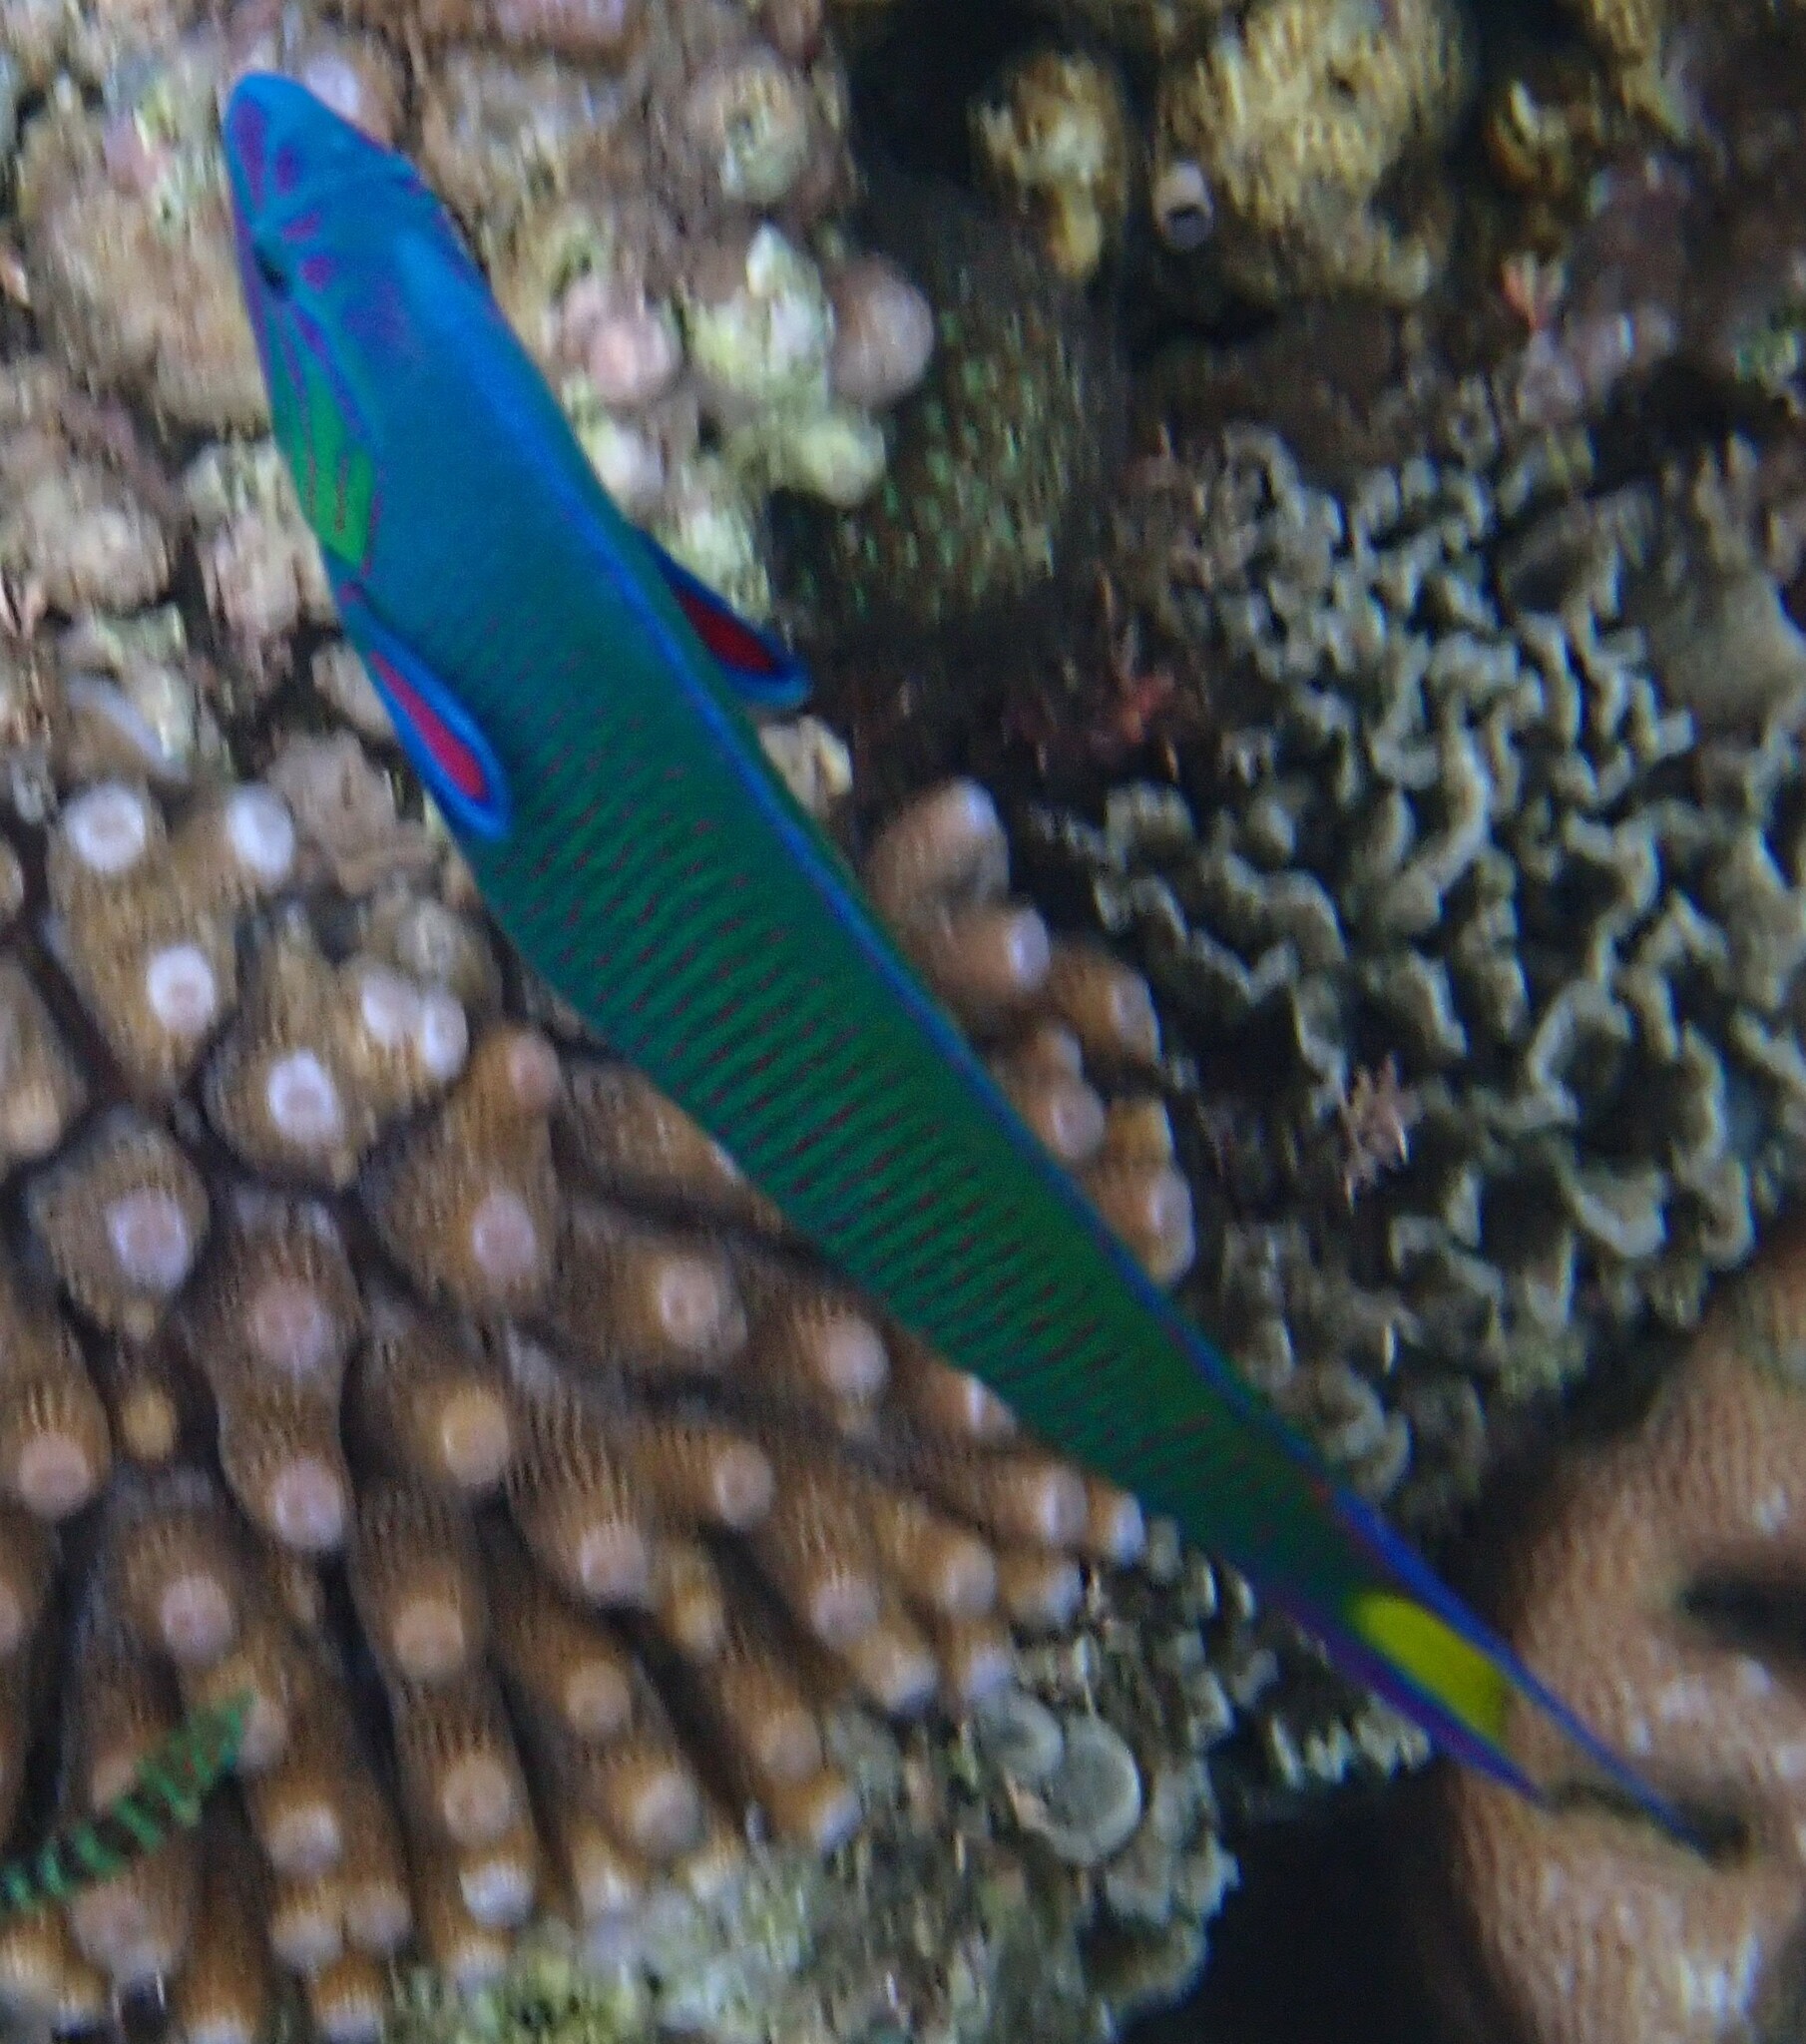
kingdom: Animalia
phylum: Chordata
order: Perciformes
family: Labridae
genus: Thalassoma
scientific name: Thalassoma lunare
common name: Blue wrasse
